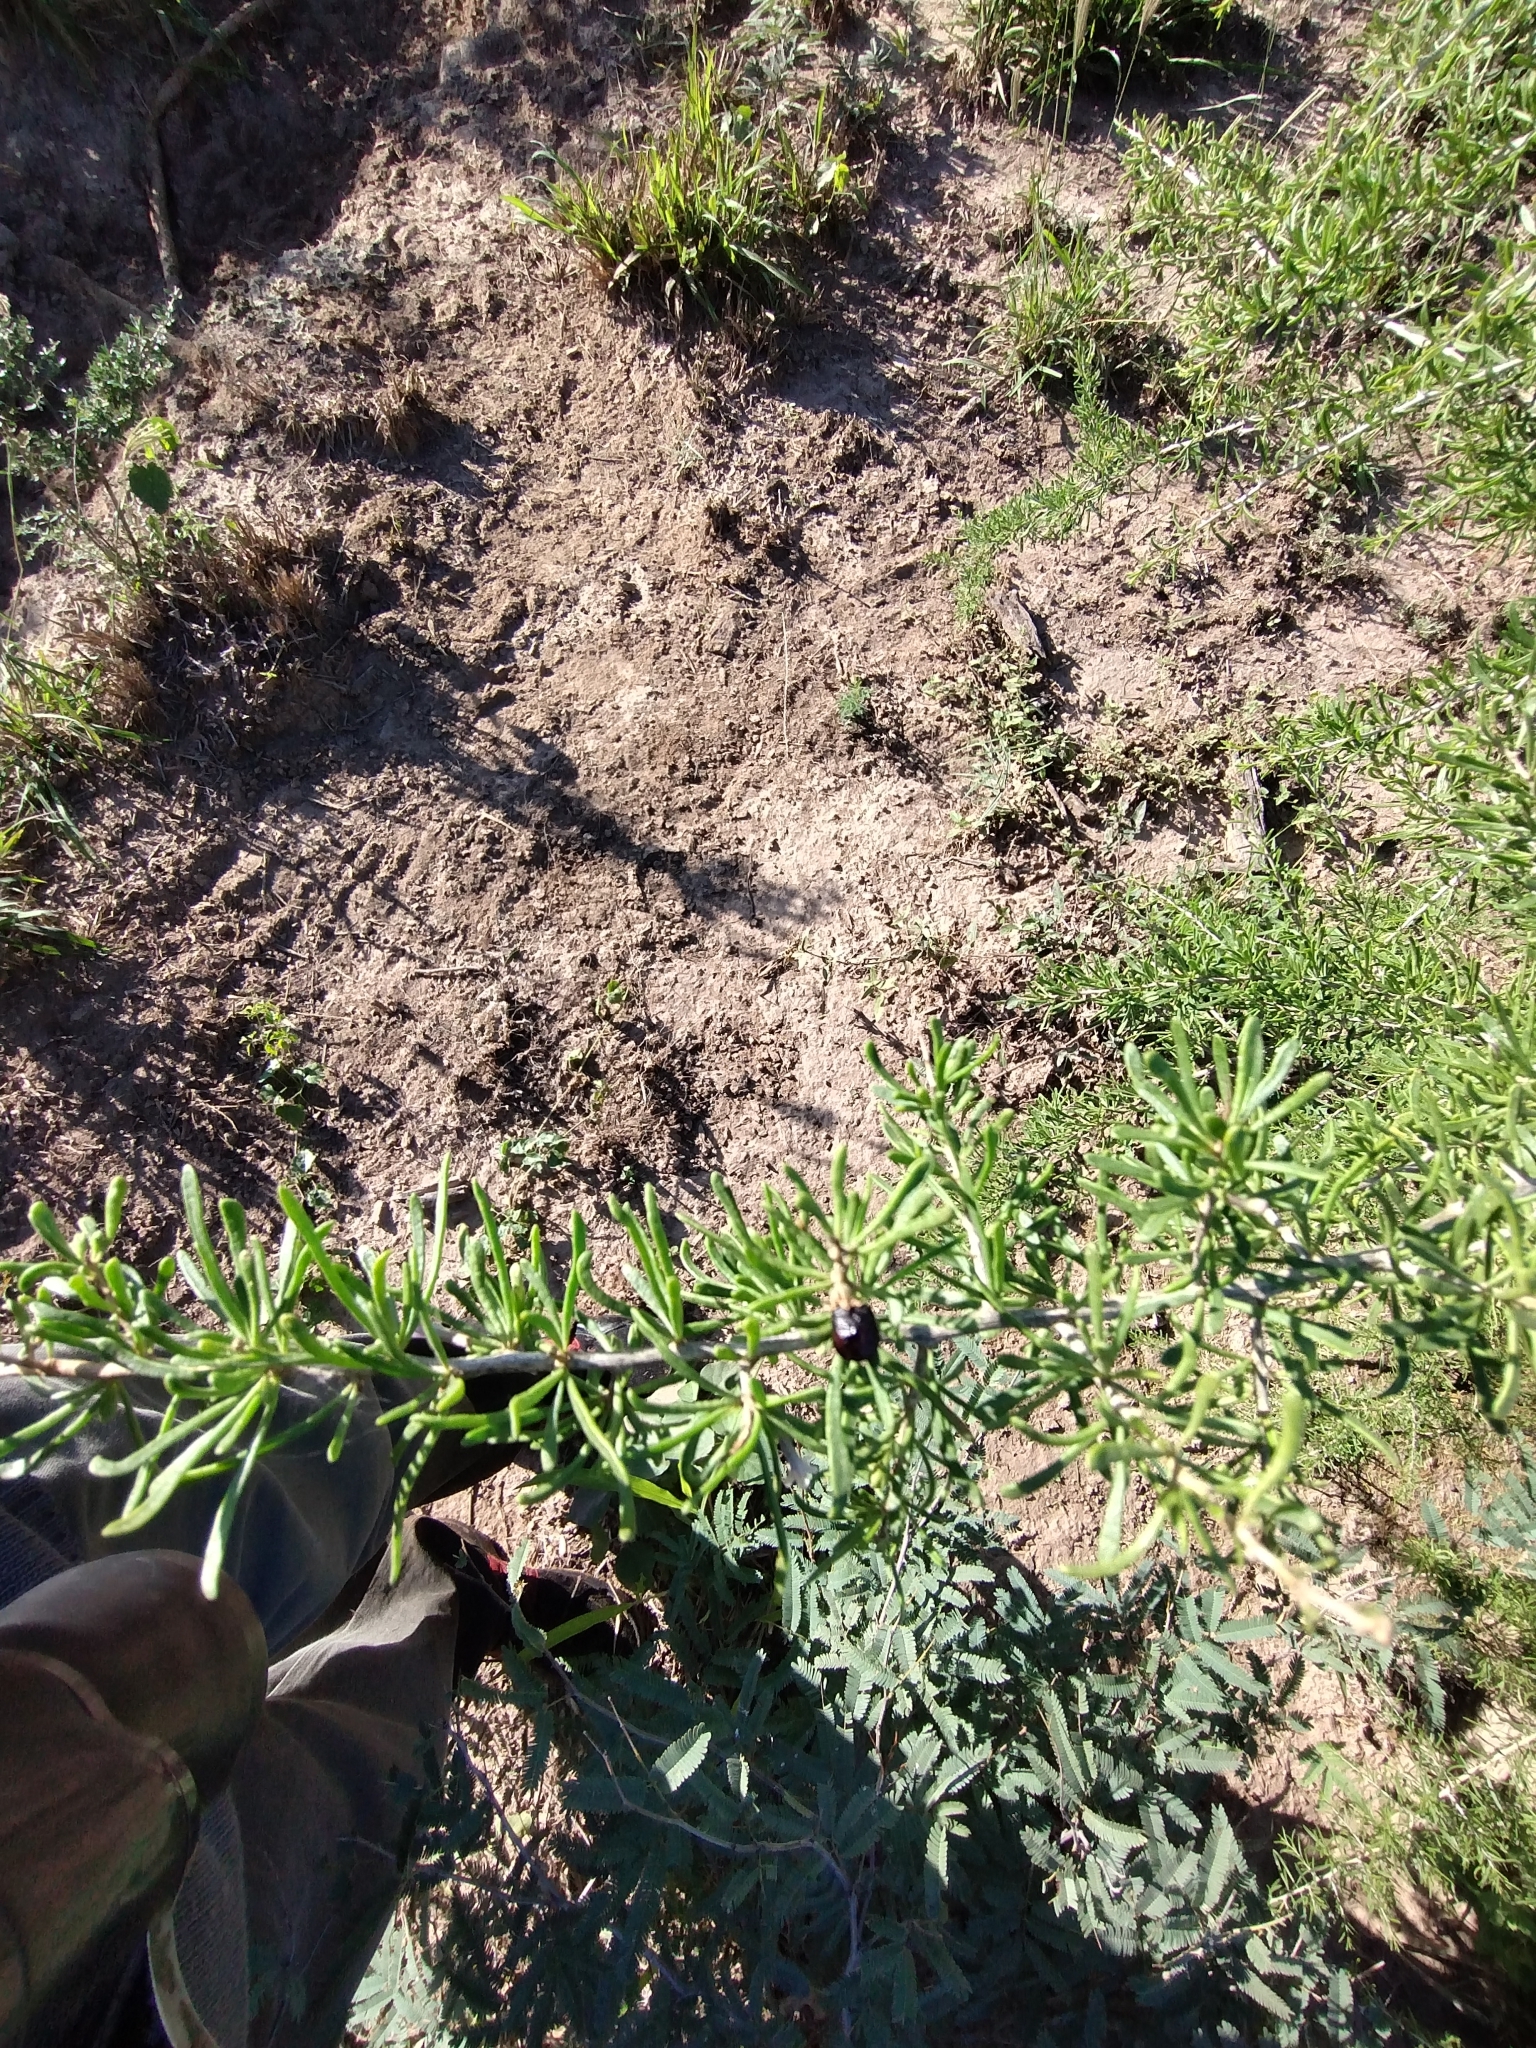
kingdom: Plantae
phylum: Tracheophyta
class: Magnoliopsida
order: Solanales
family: Solanaceae
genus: Lycium
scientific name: Lycium
